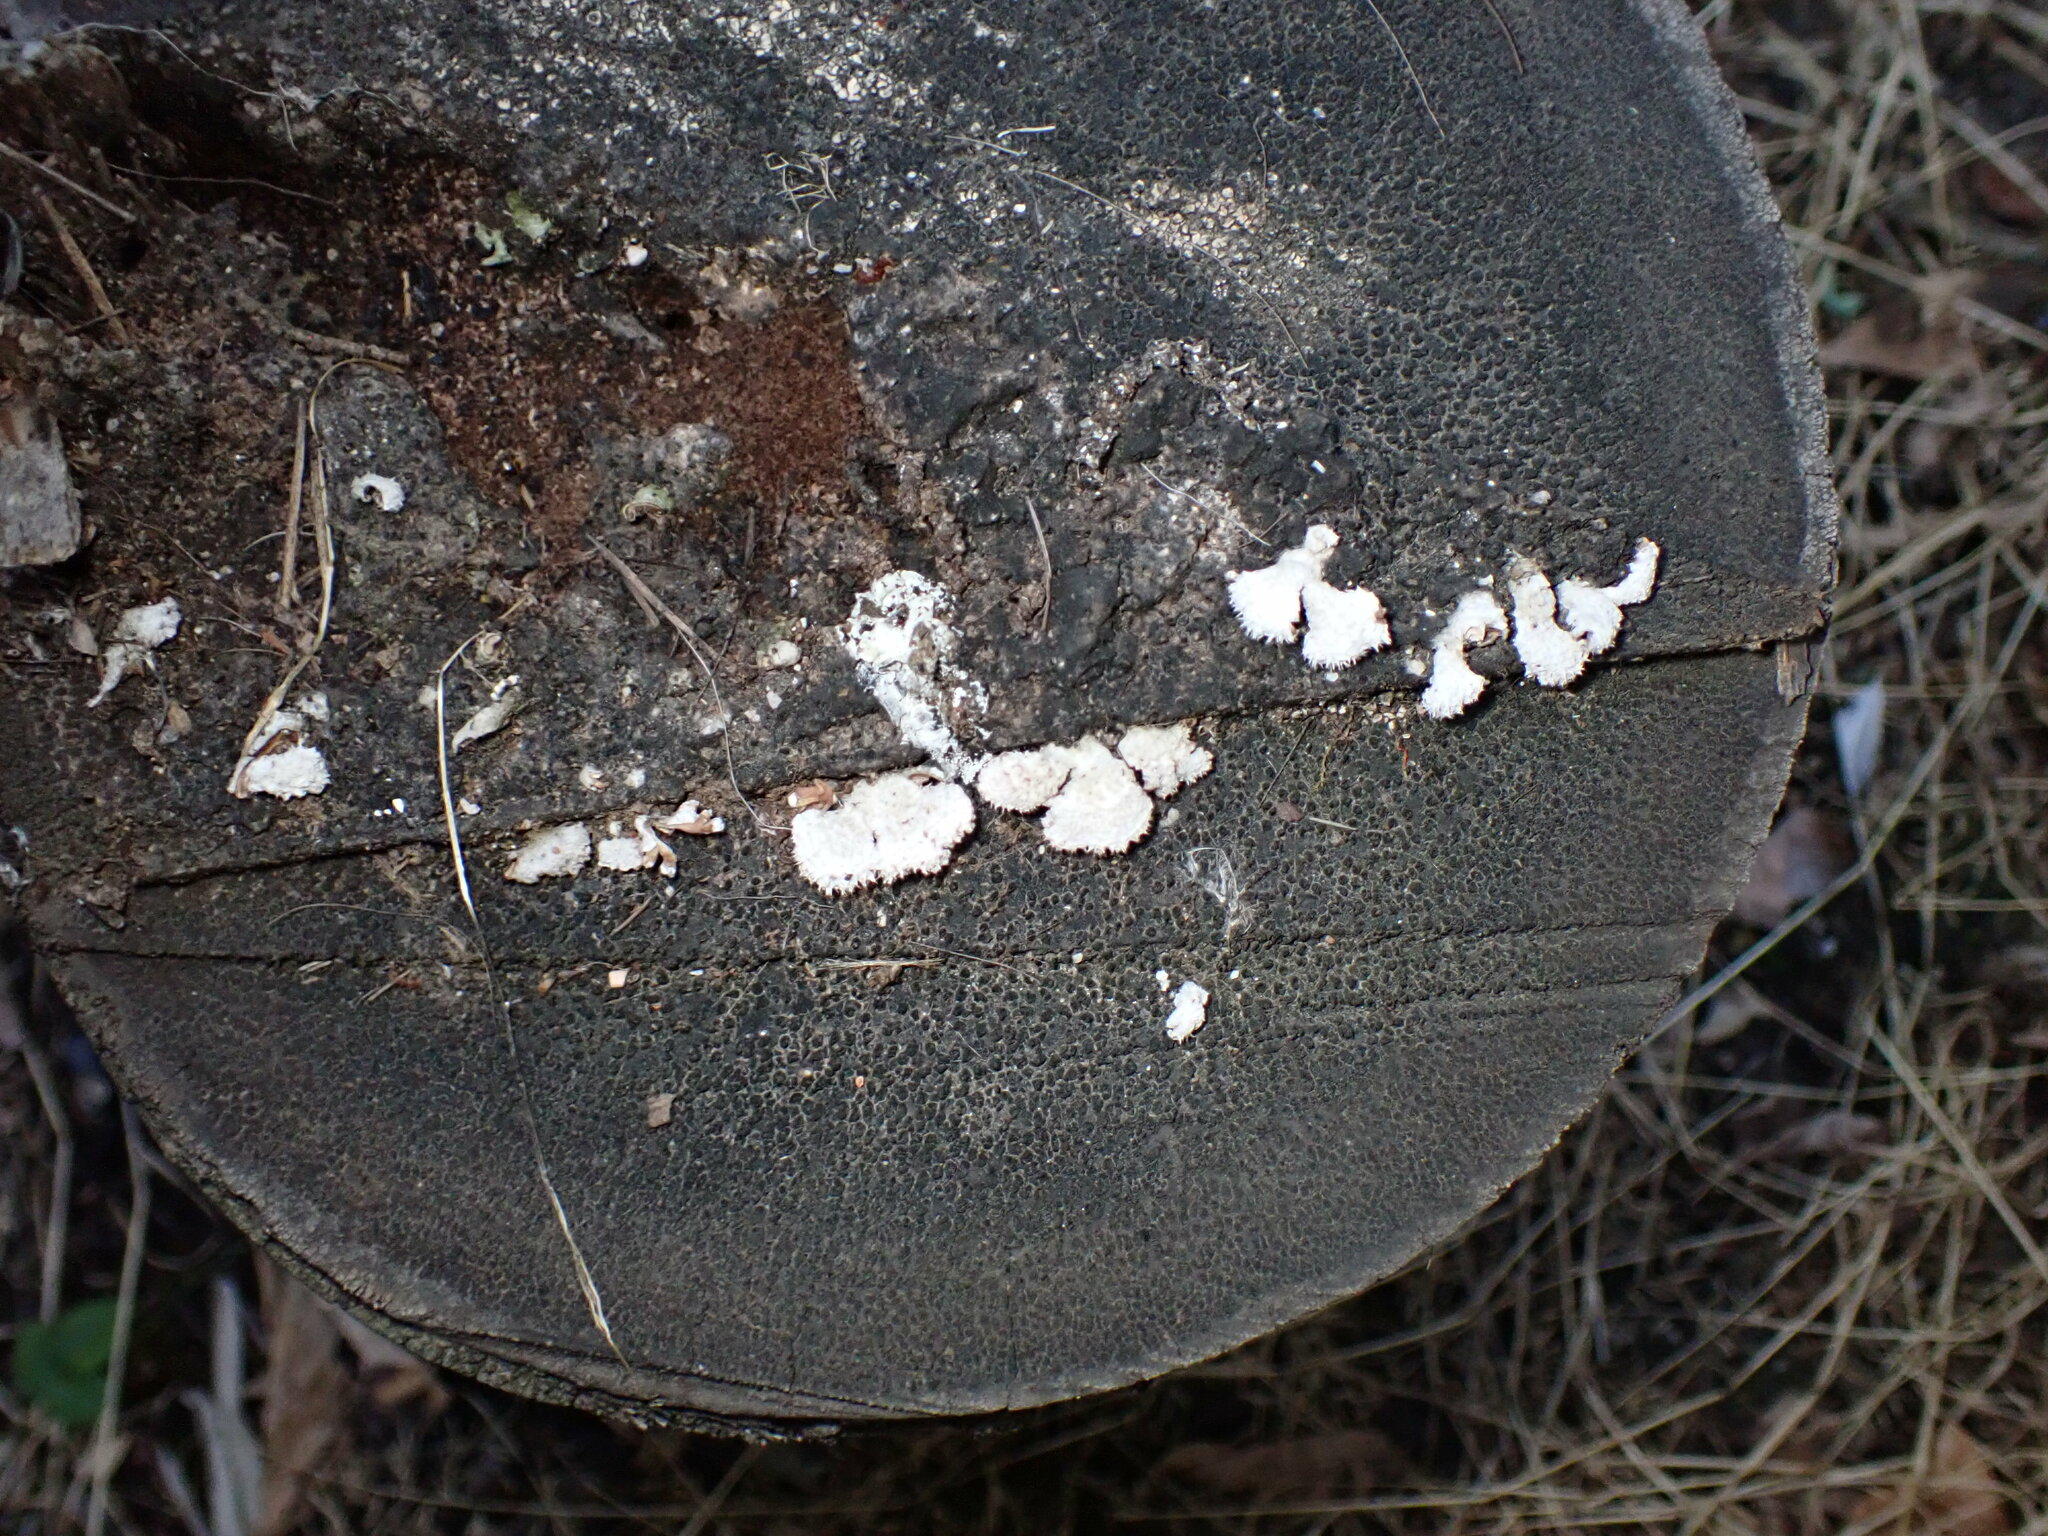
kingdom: Fungi
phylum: Basidiomycota
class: Agaricomycetes
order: Agaricales
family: Schizophyllaceae
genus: Schizophyllum
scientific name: Schizophyllum commune
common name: Common porecrust
